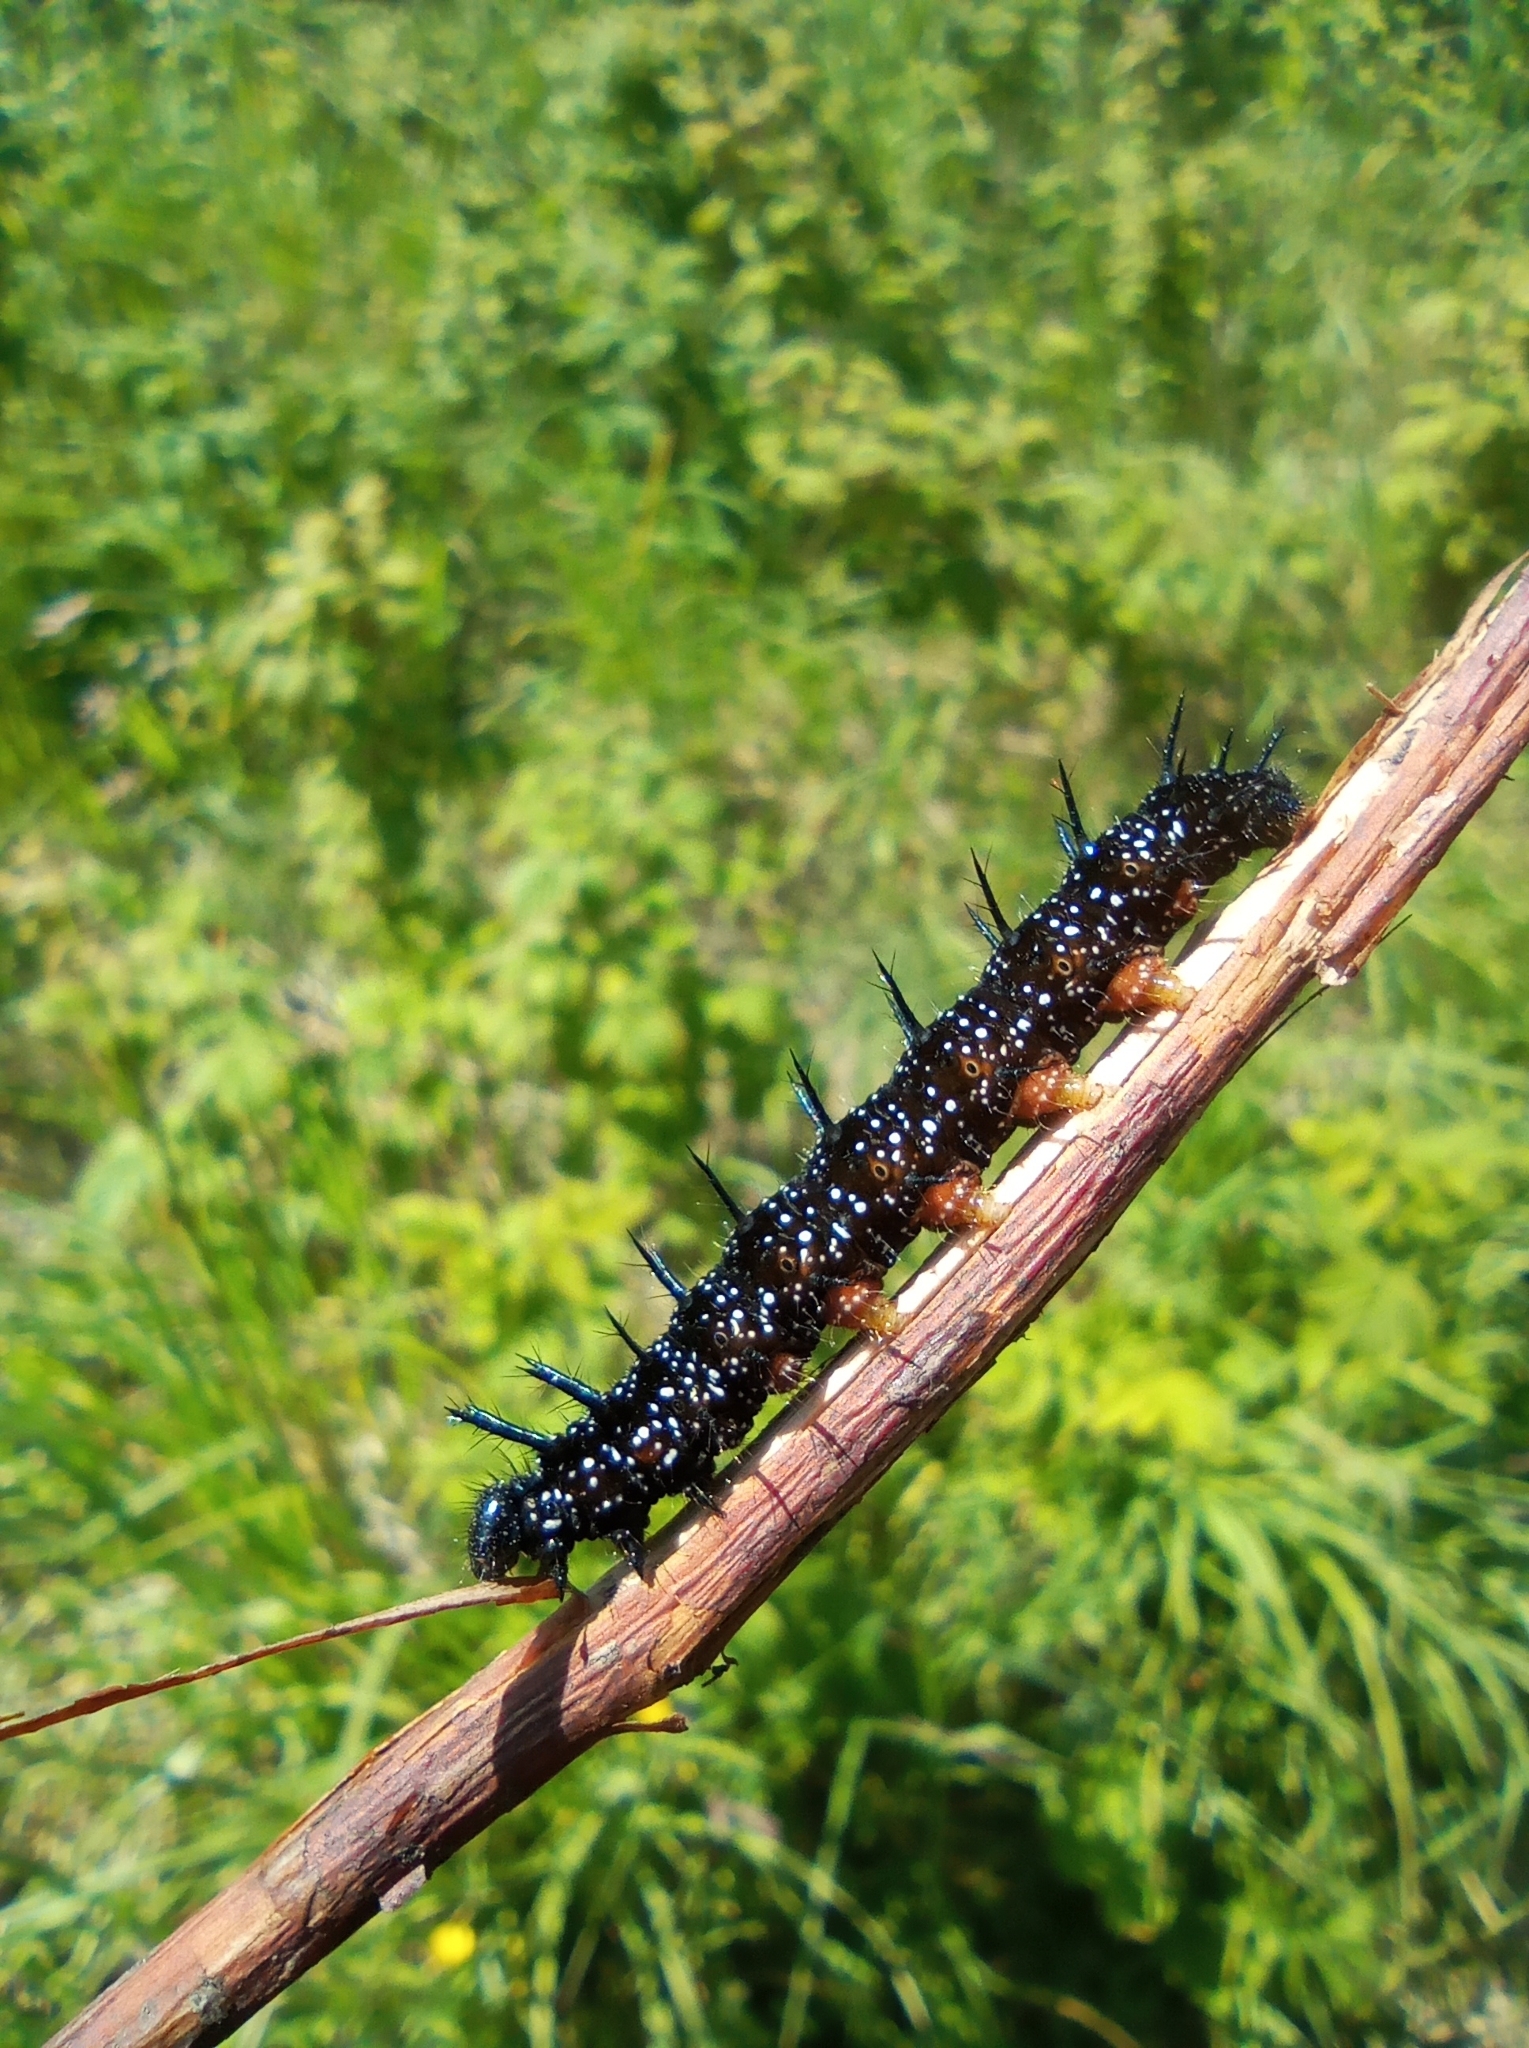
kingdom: Animalia
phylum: Arthropoda
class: Insecta
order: Lepidoptera
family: Nymphalidae
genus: Aglais
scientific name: Aglais io
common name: Peacock
